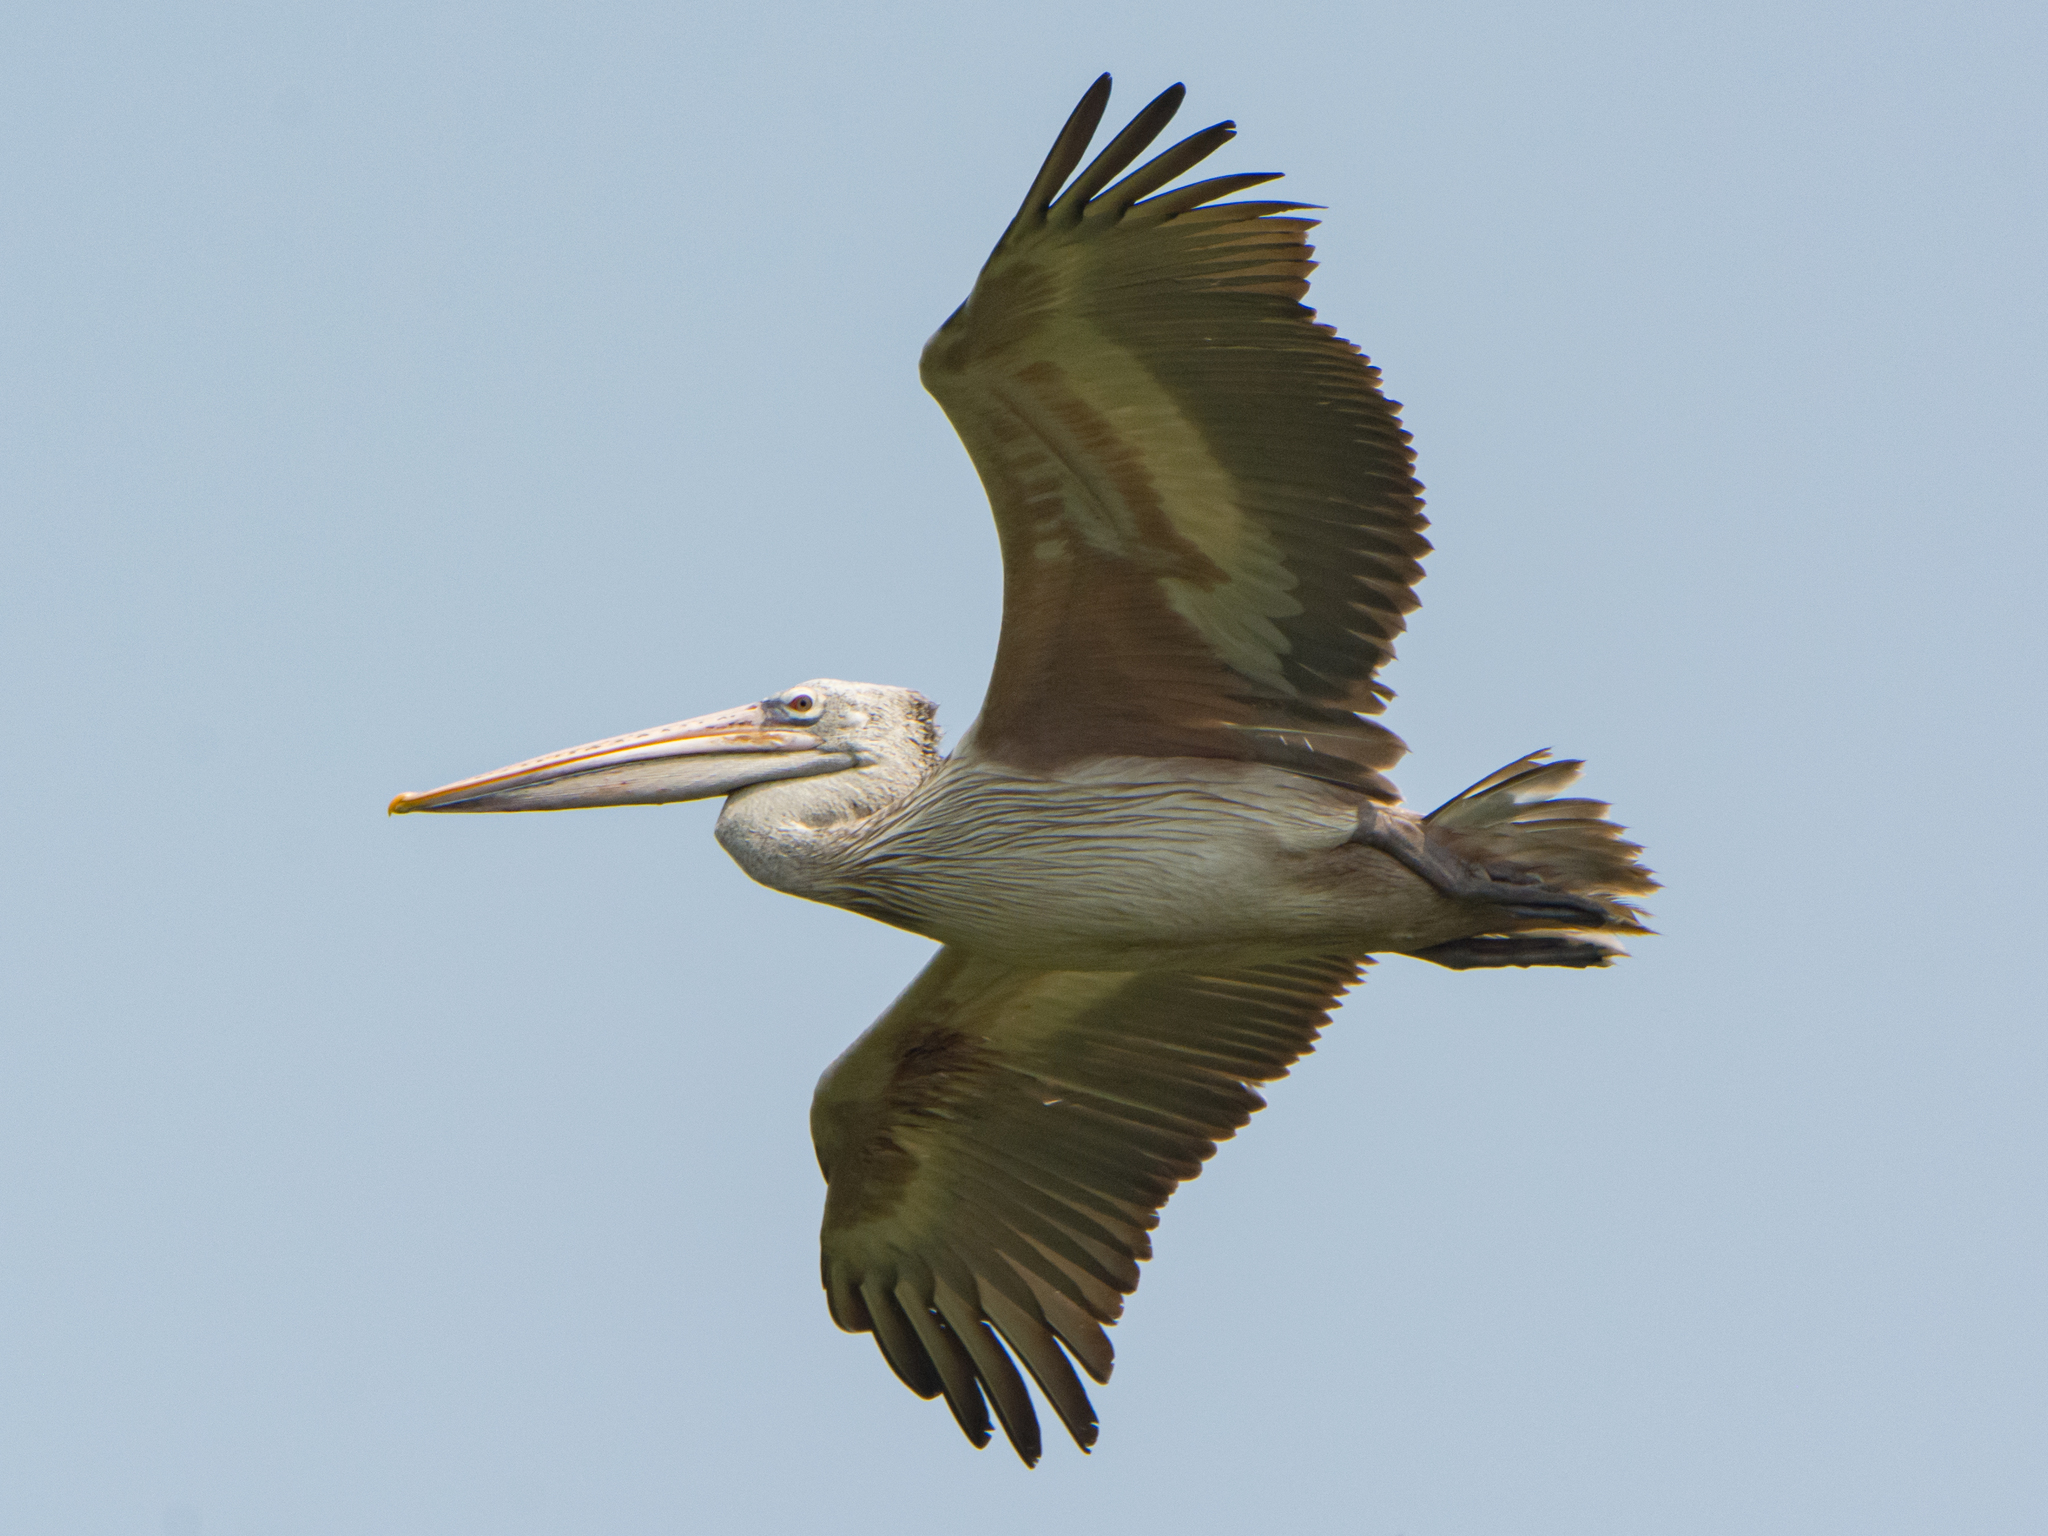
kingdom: Animalia
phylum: Chordata
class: Aves
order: Pelecaniformes
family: Pelecanidae
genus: Pelecanus
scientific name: Pelecanus philippensis
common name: Spot-billed pelican
